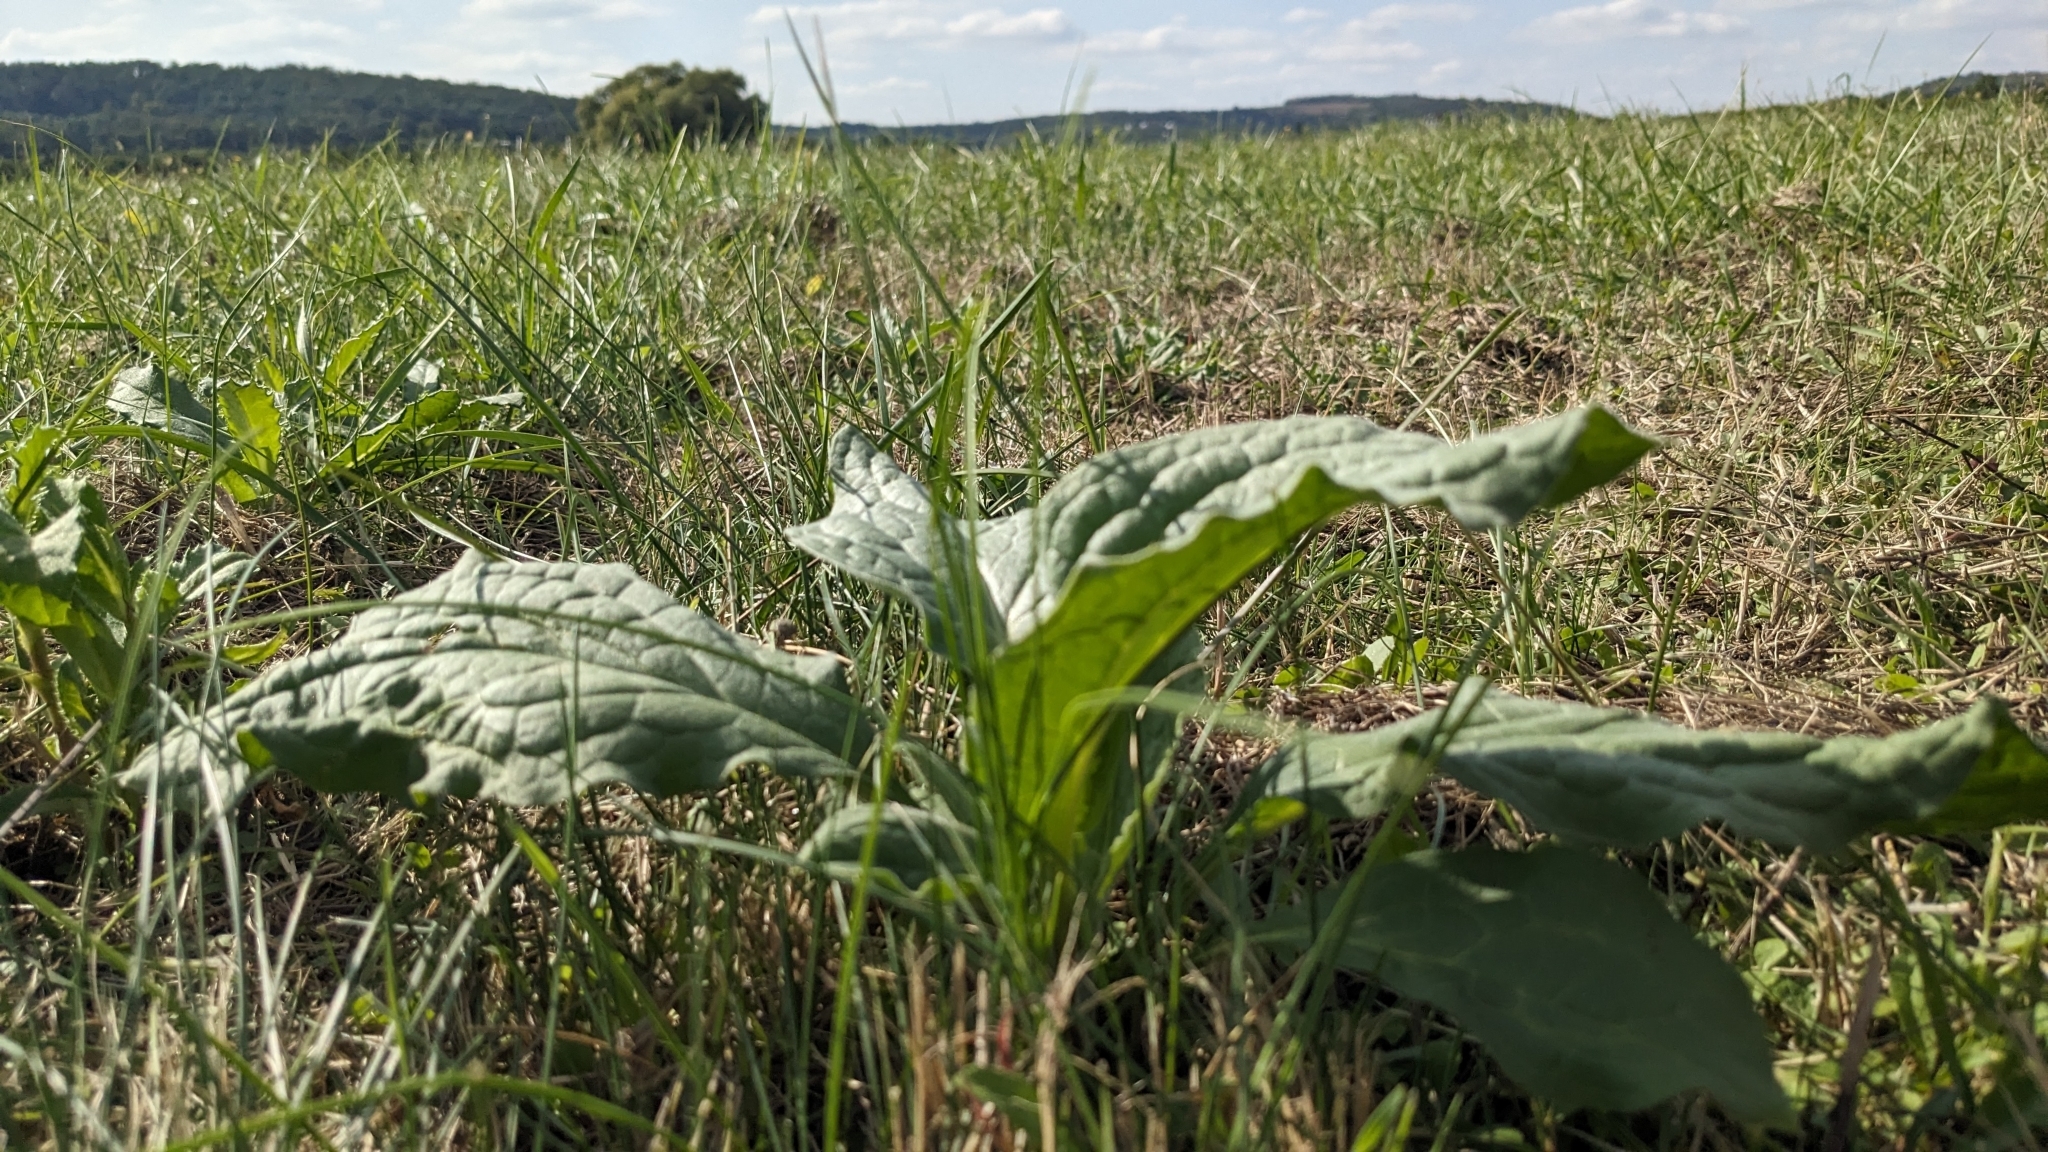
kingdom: Plantae
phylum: Tracheophyta
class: Magnoliopsida
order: Boraginales
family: Boraginaceae
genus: Cynoglossum
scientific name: Cynoglossum officinale
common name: Hound's-tongue
